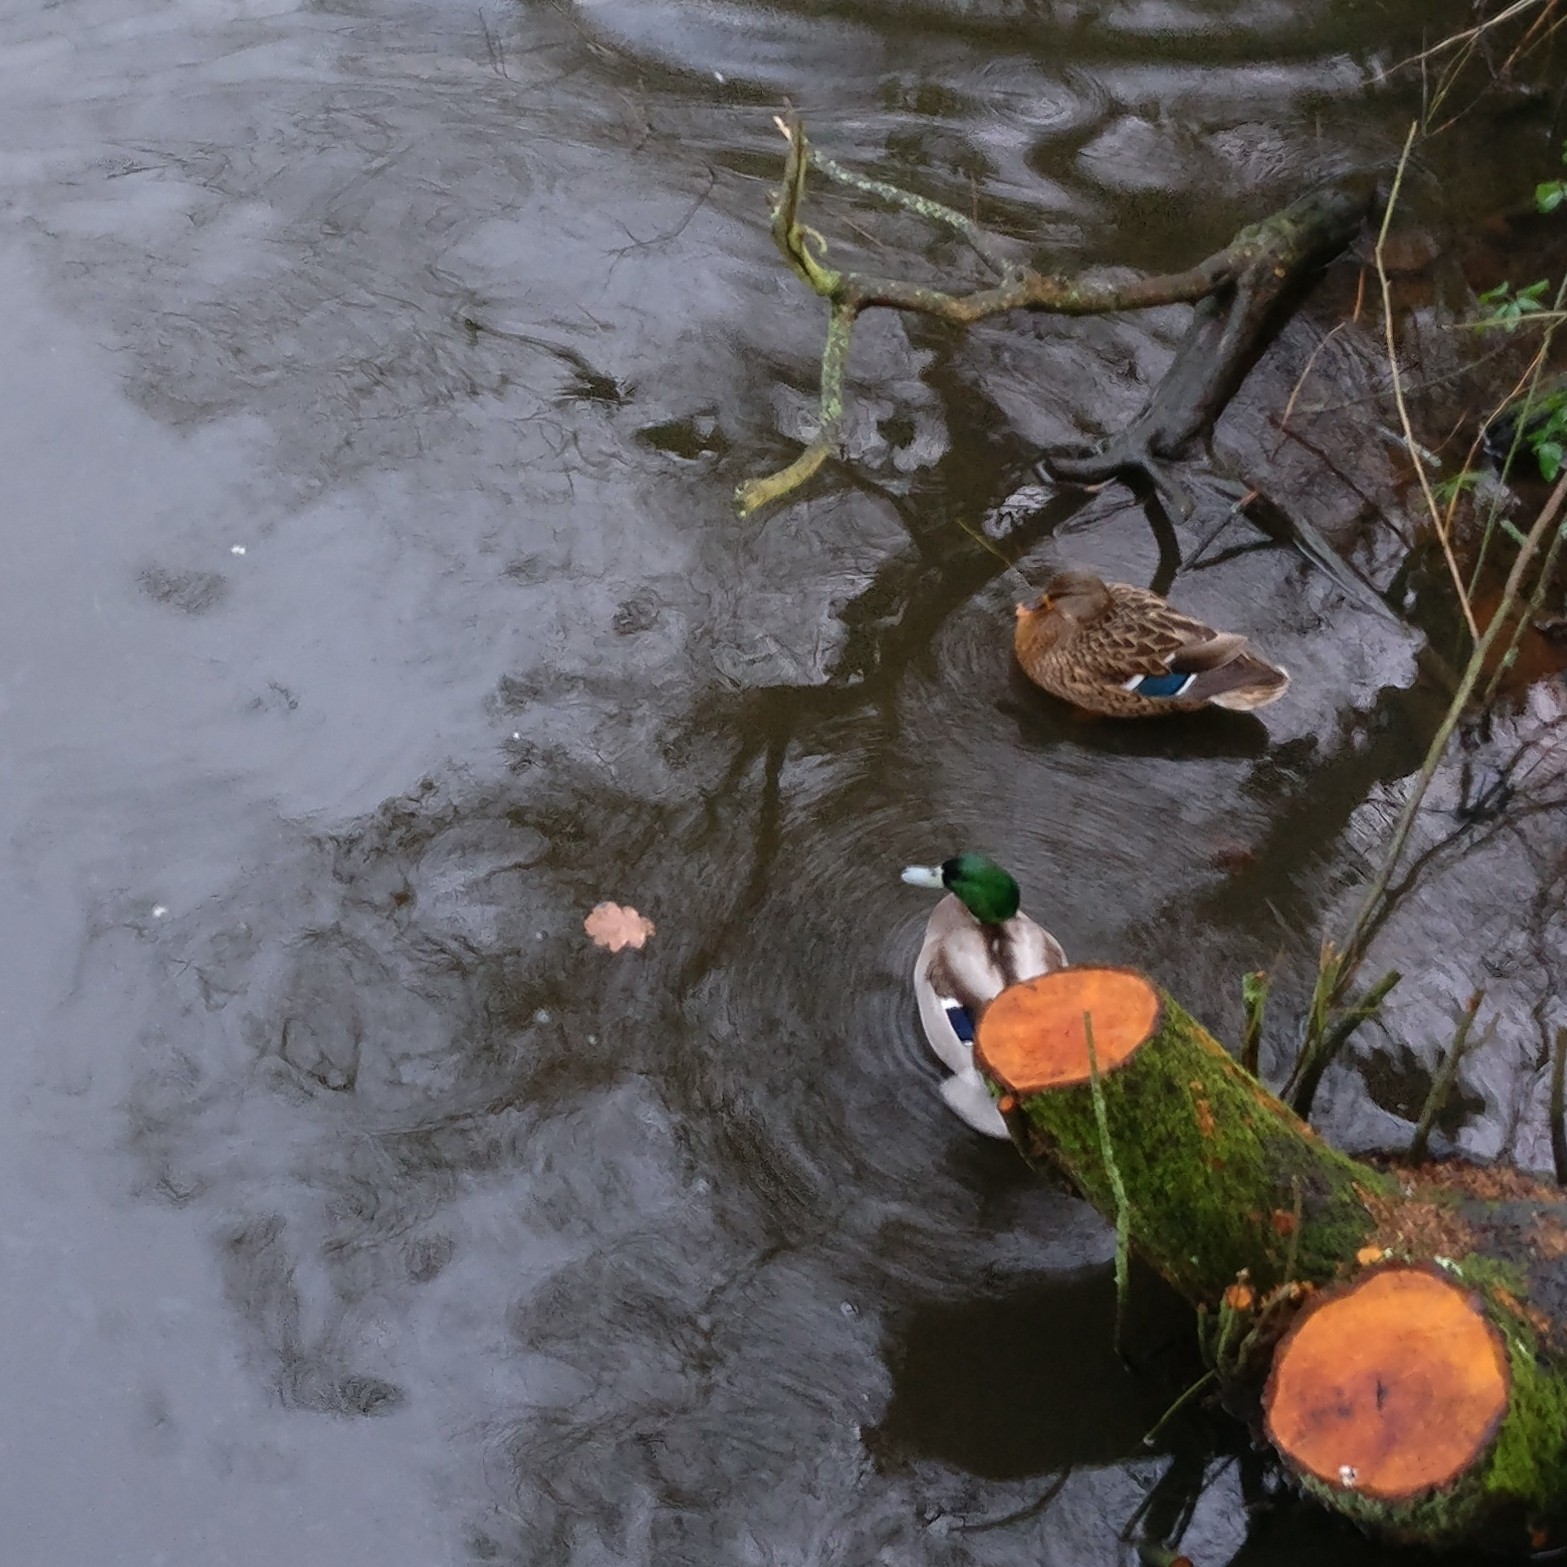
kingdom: Animalia
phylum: Chordata
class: Aves
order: Anseriformes
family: Anatidae
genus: Anas
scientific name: Anas platyrhynchos
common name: Mallard
